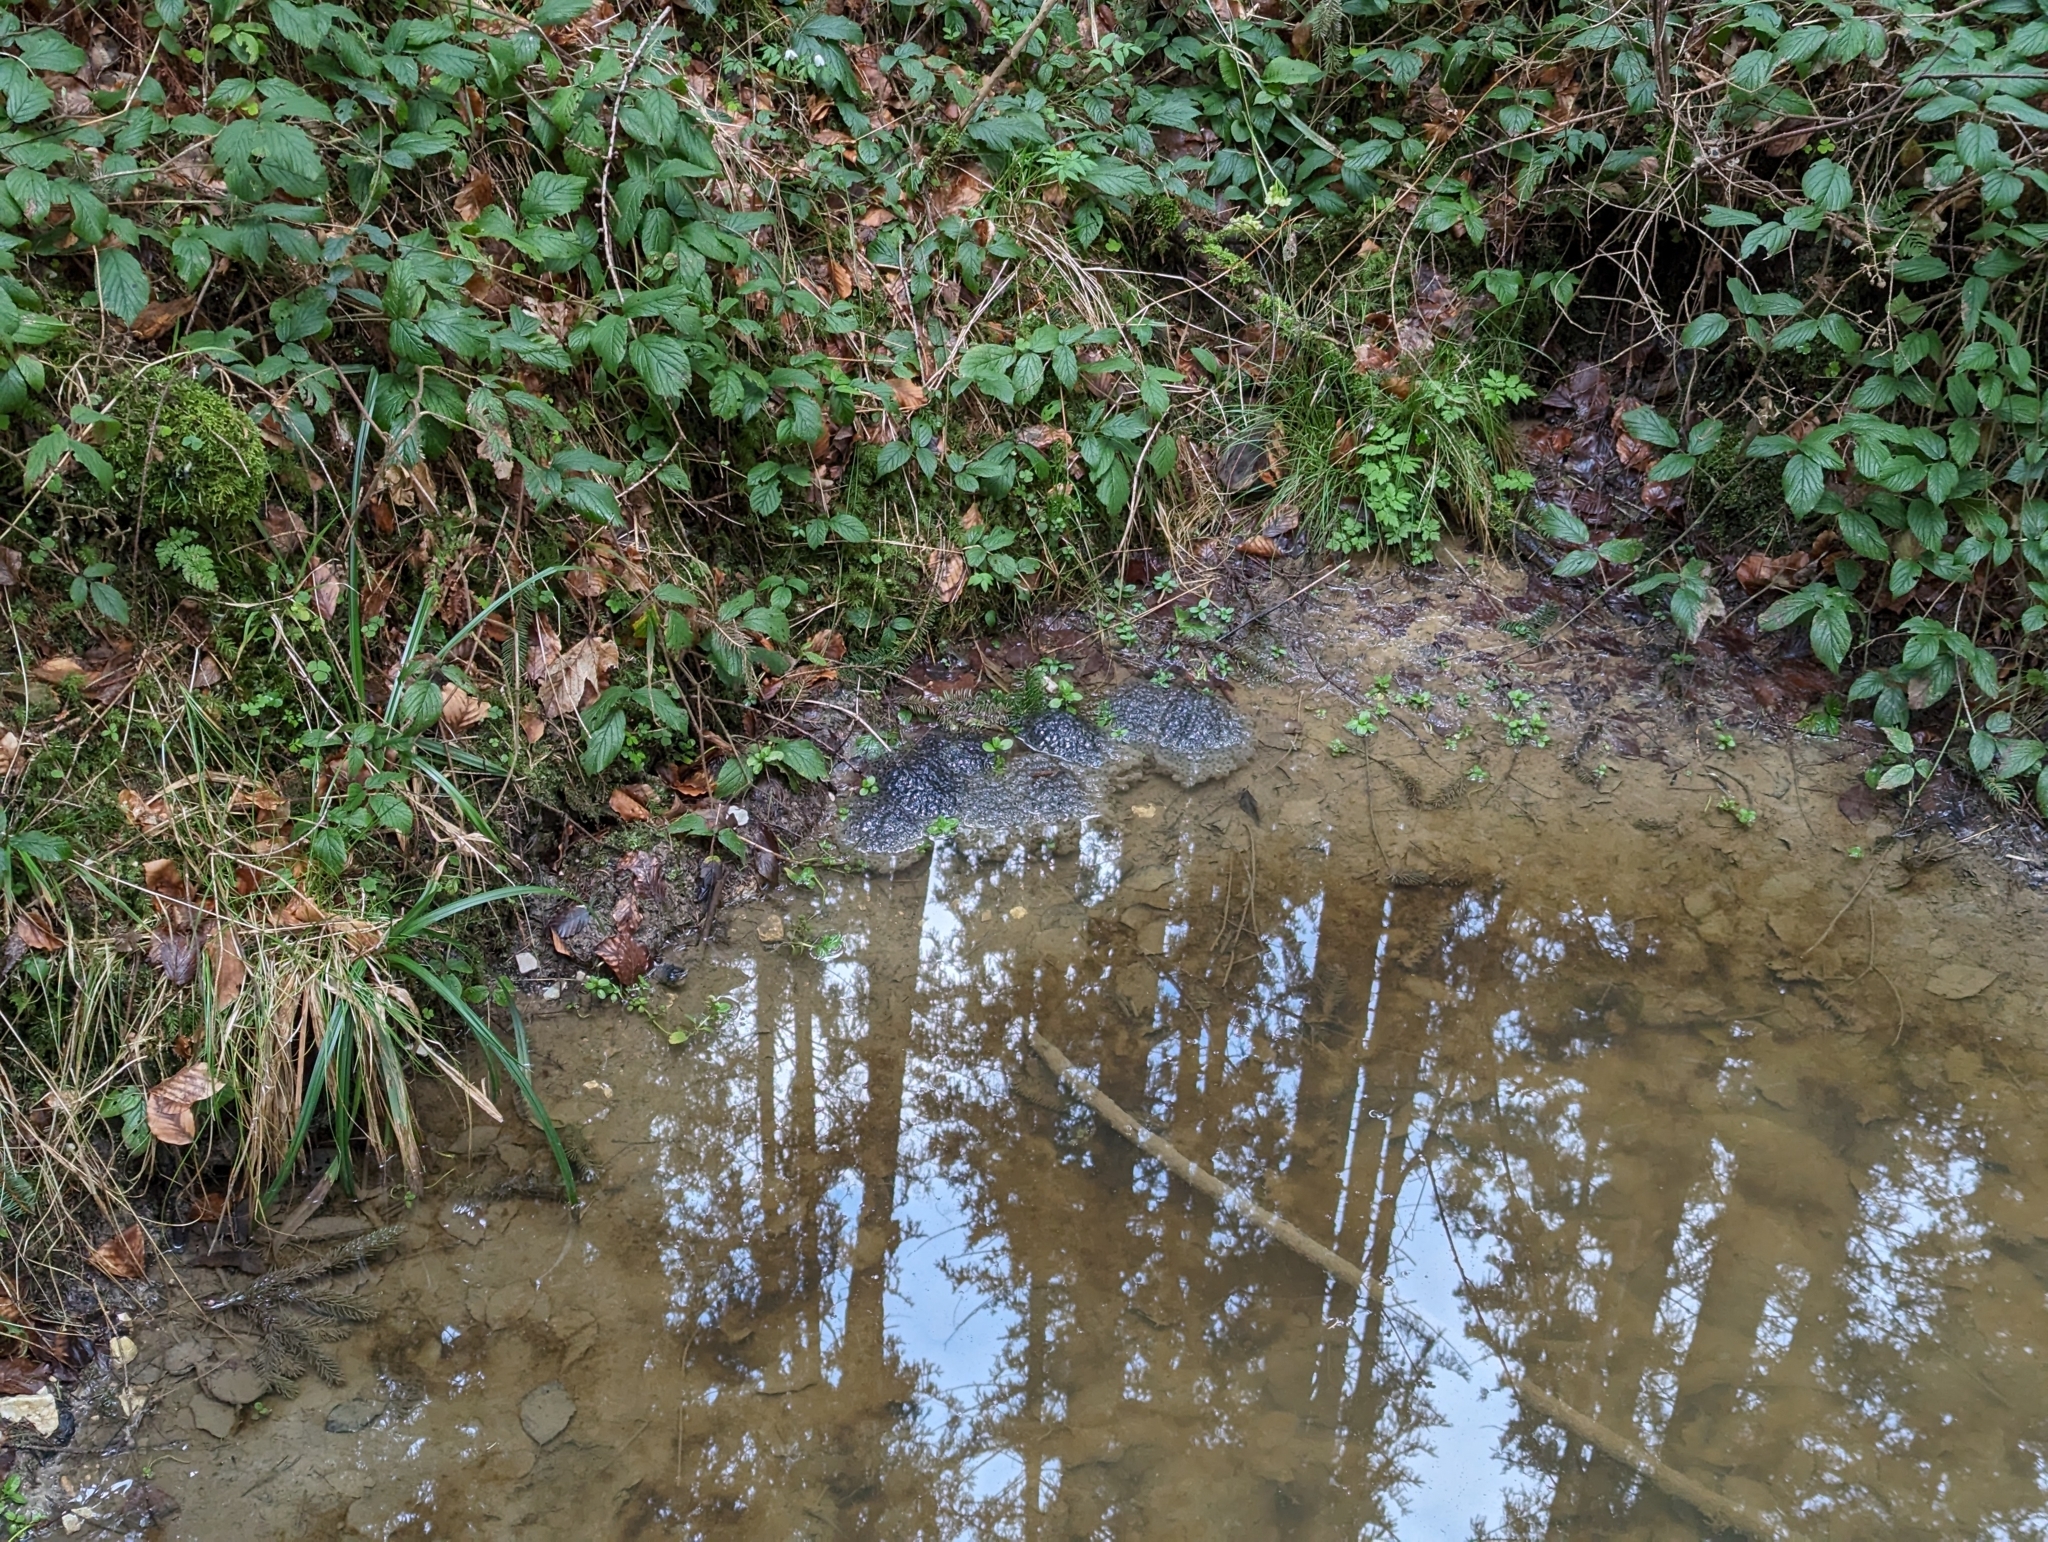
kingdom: Animalia
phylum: Chordata
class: Amphibia
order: Anura
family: Ranidae
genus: Rana
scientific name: Rana temporaria
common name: Common frog
